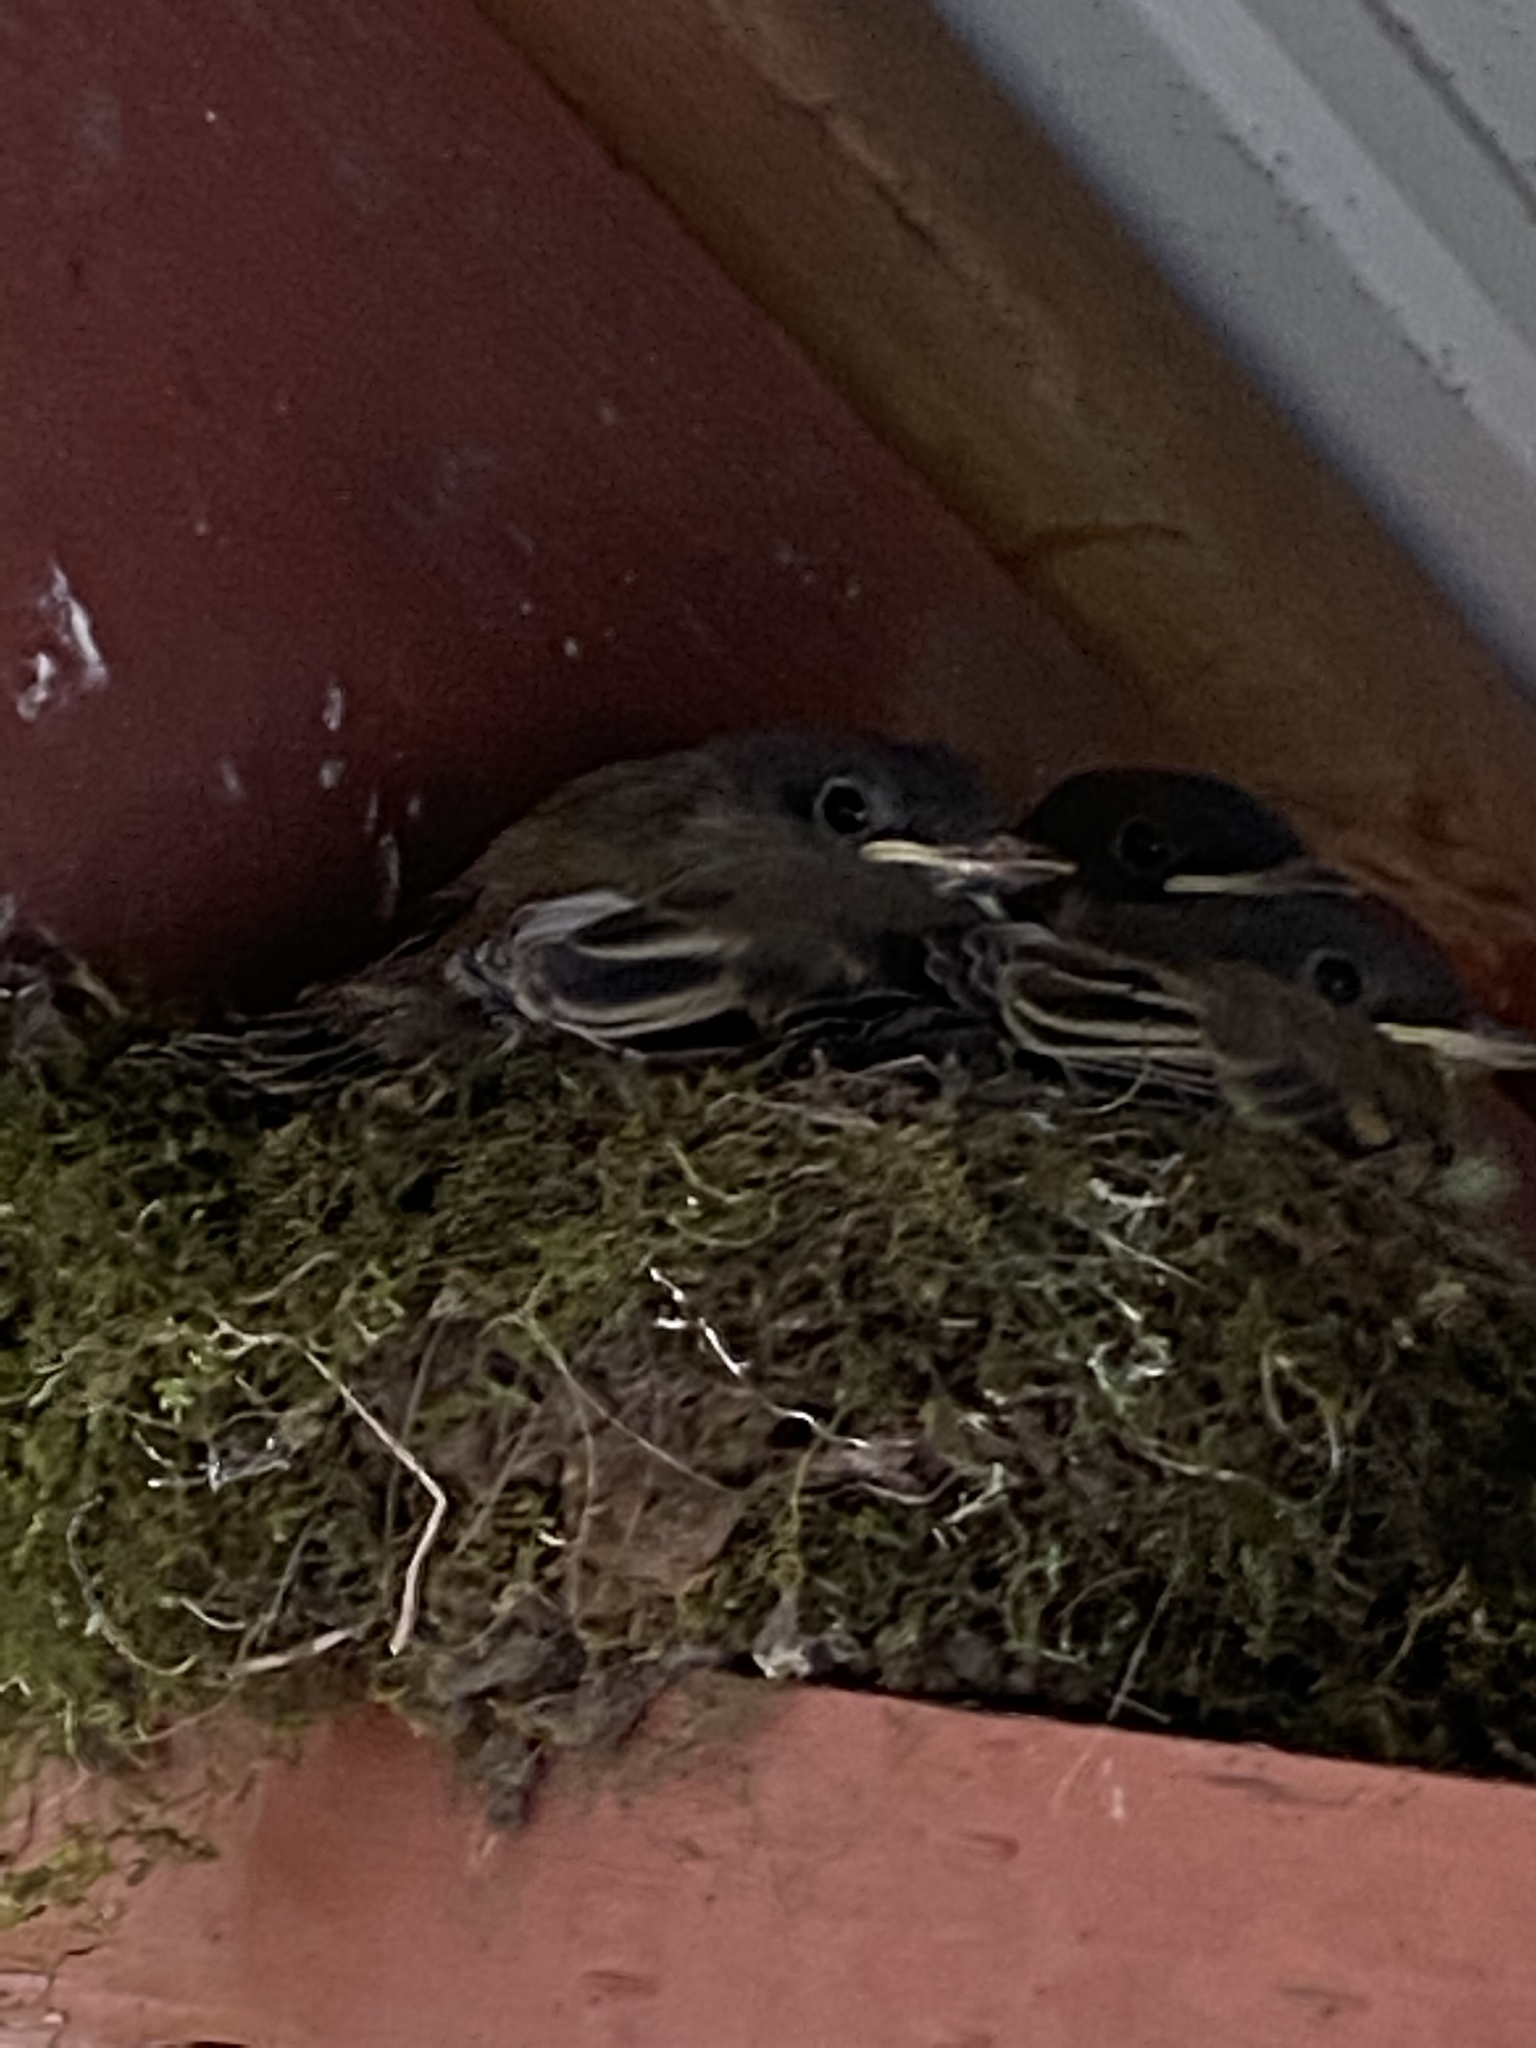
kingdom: Animalia
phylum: Chordata
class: Aves
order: Passeriformes
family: Tyrannidae
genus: Sayornis
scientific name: Sayornis phoebe
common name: Eastern phoebe
